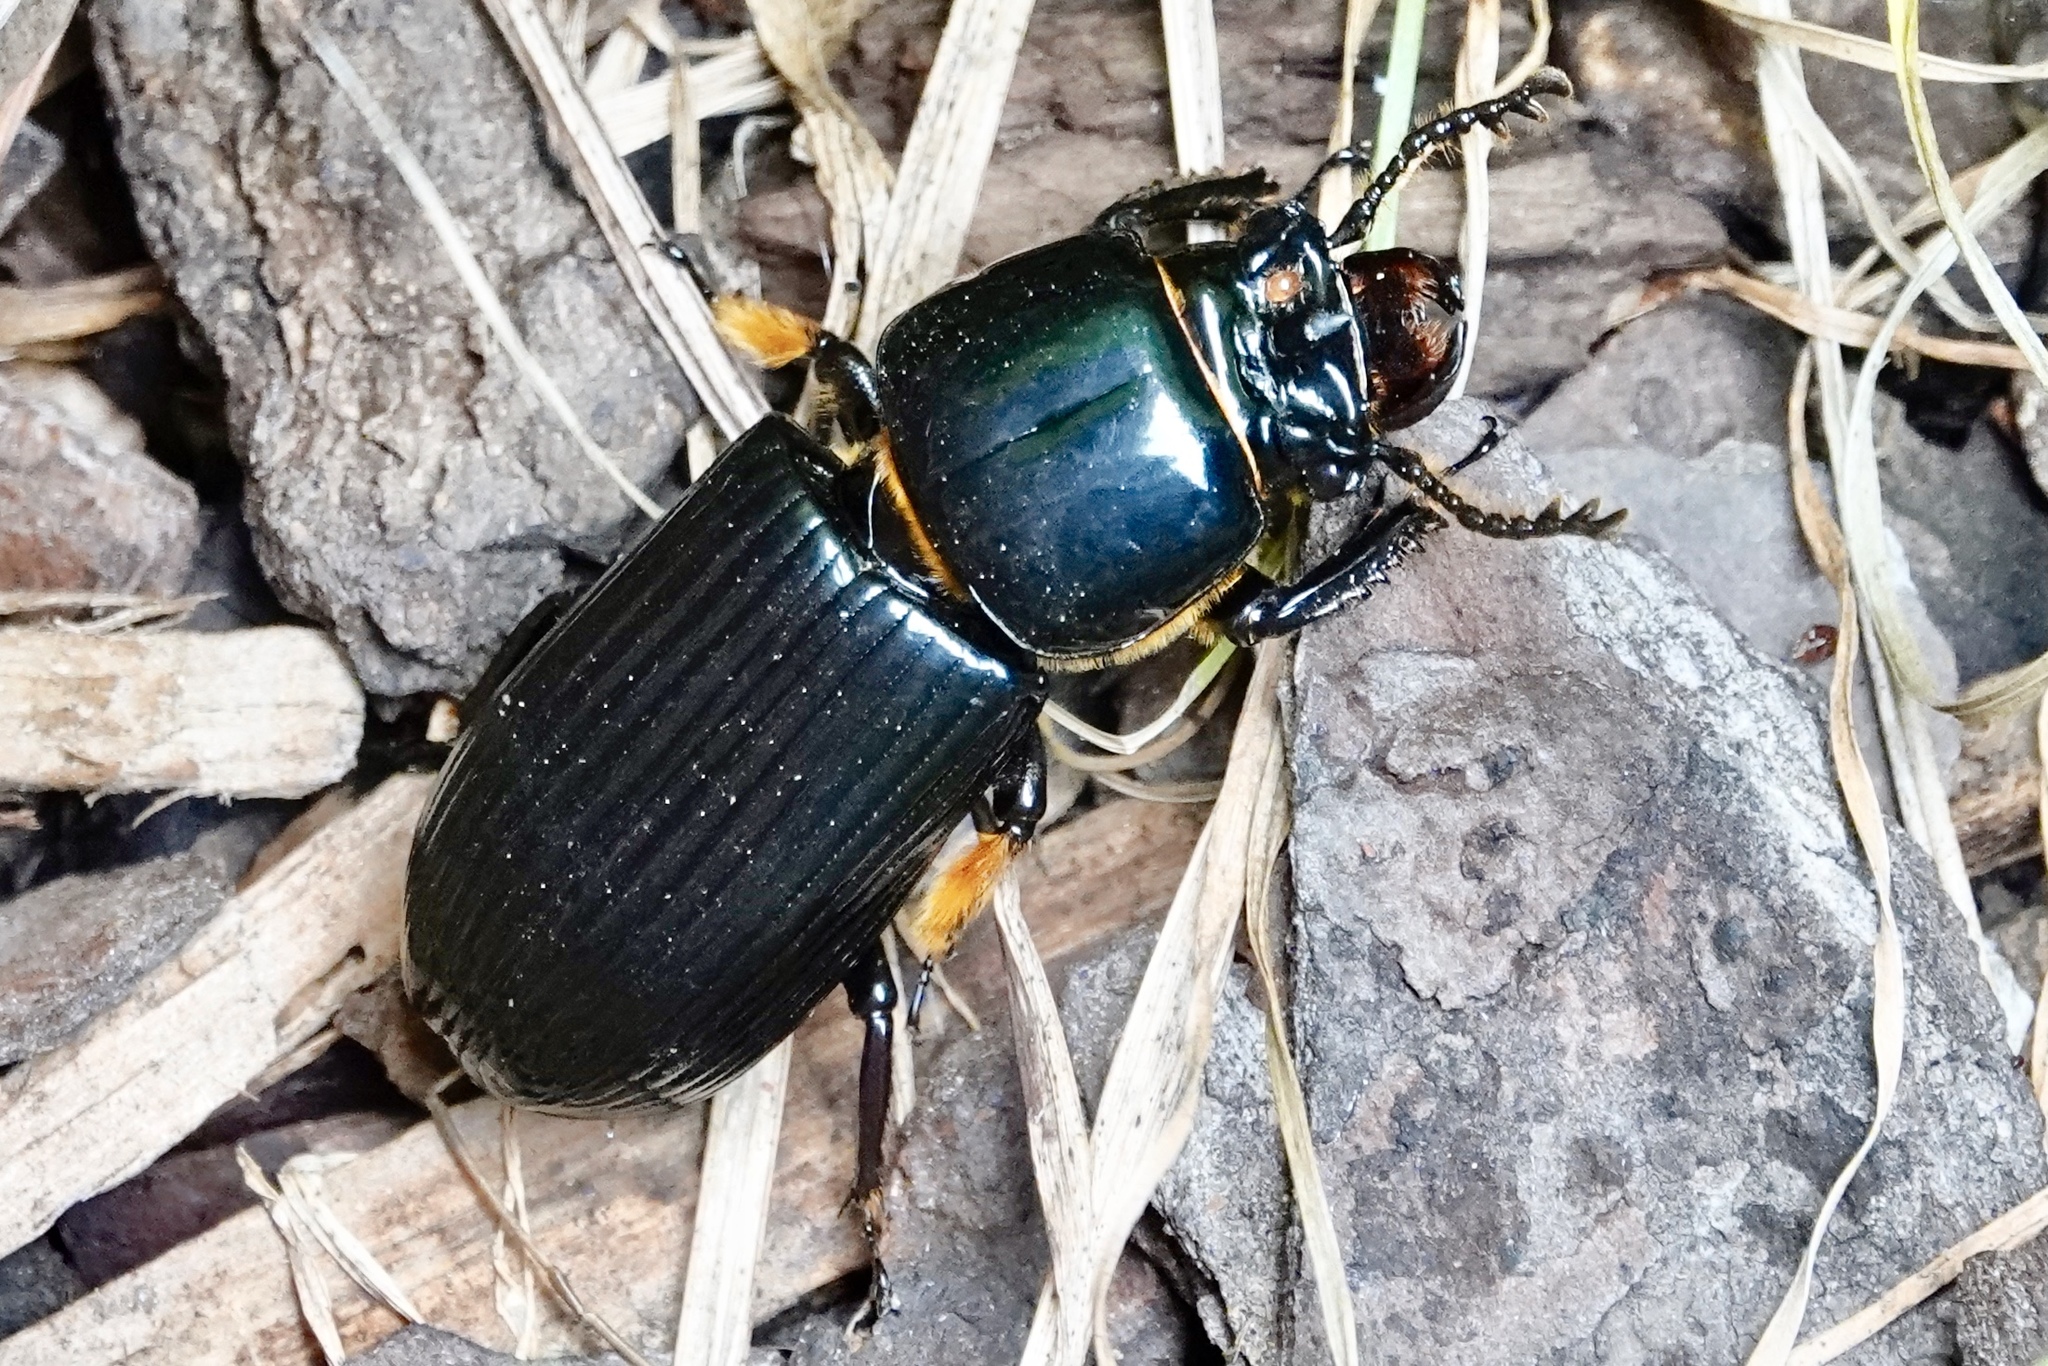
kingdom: Animalia
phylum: Arthropoda
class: Insecta
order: Coleoptera
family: Passalidae
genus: Odontotaenius
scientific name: Odontotaenius disjunctus
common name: Patent leather beetle
